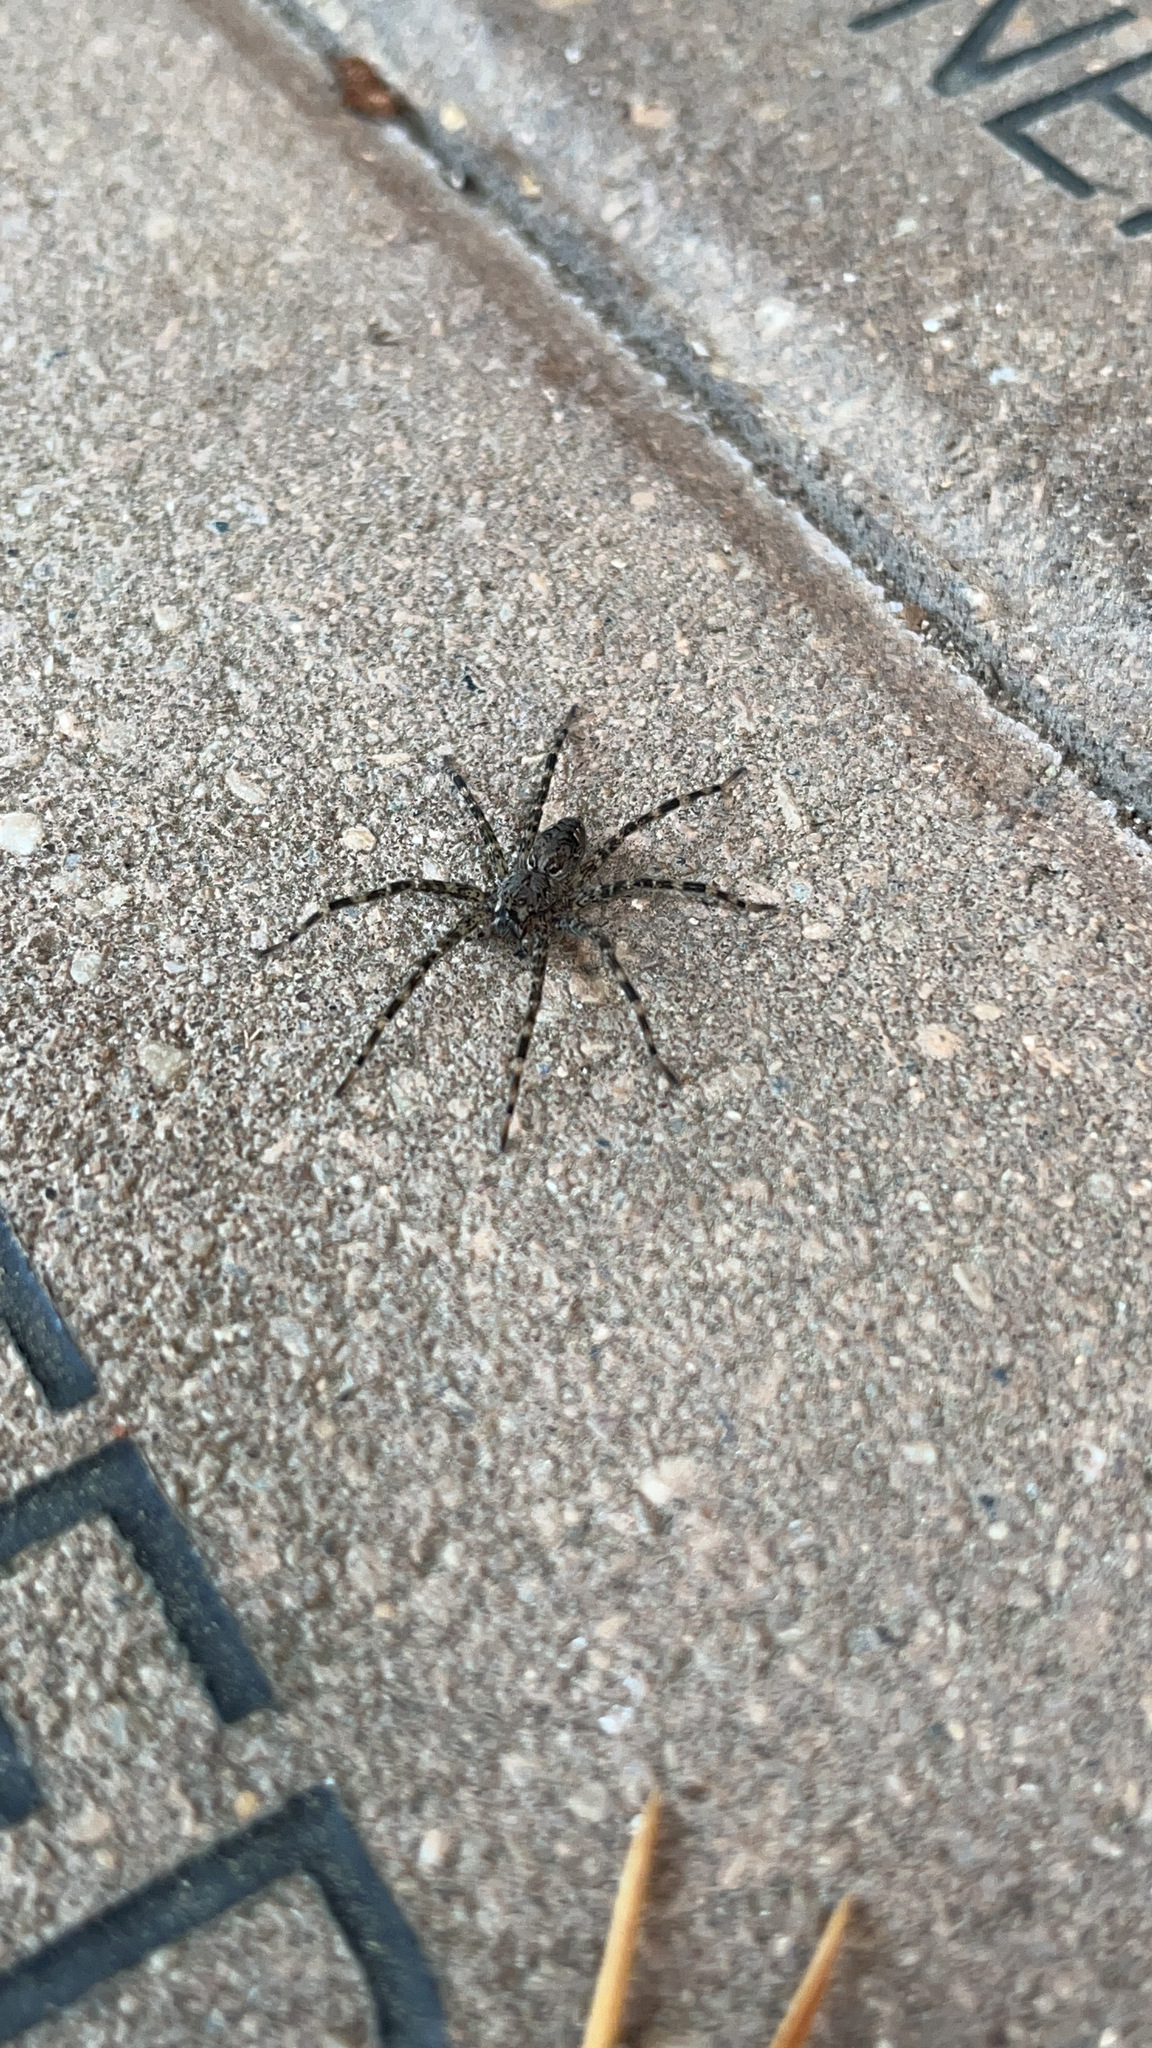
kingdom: Animalia
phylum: Arthropoda
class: Arachnida
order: Araneae
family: Pisauridae
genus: Dolomedes
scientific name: Dolomedes tenebrosus
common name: Dark fishing spider
